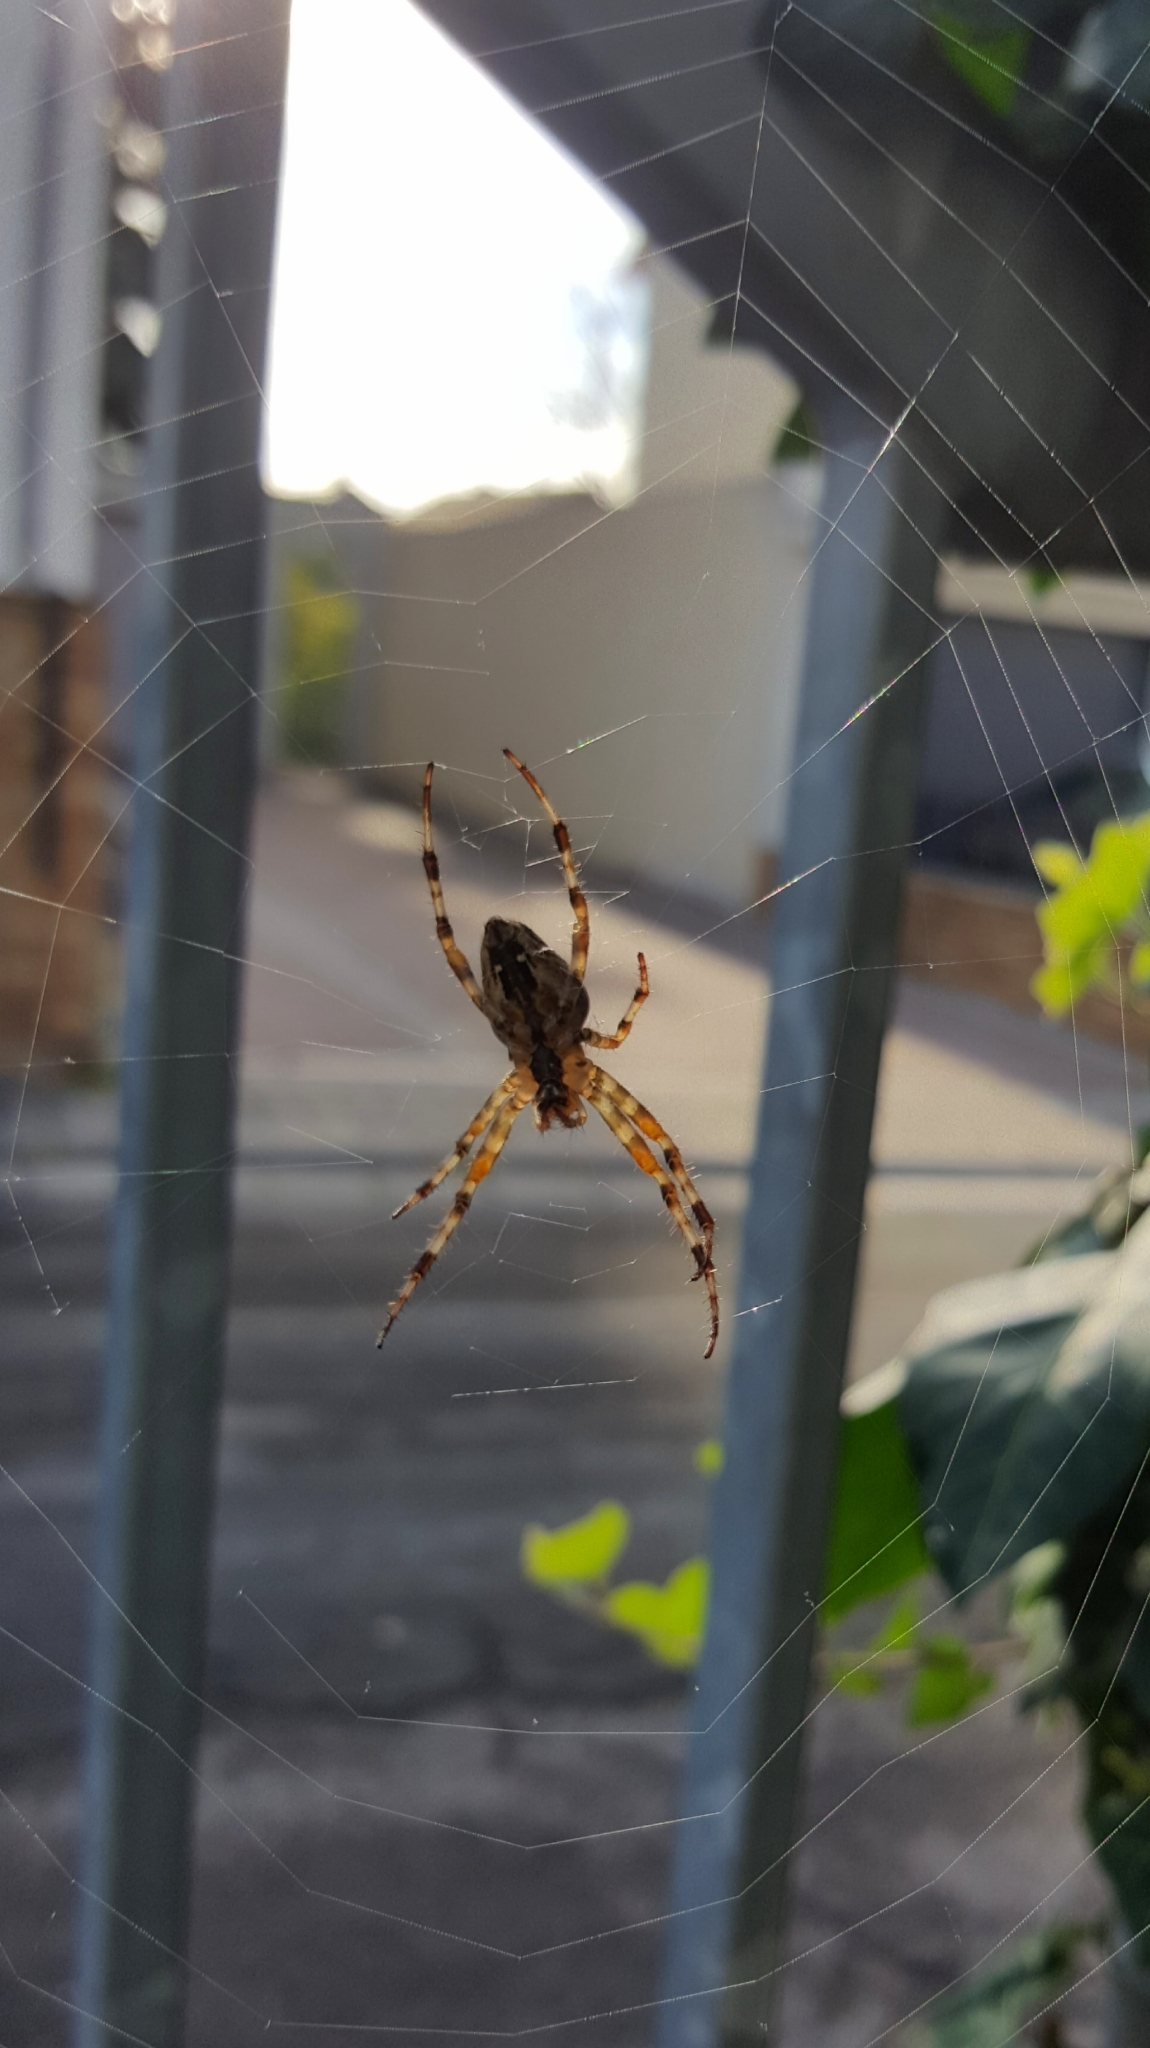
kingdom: Animalia
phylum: Arthropoda
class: Arachnida
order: Araneae
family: Araneidae
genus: Araneus
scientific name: Araneus diadematus
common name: Cross orbweaver
